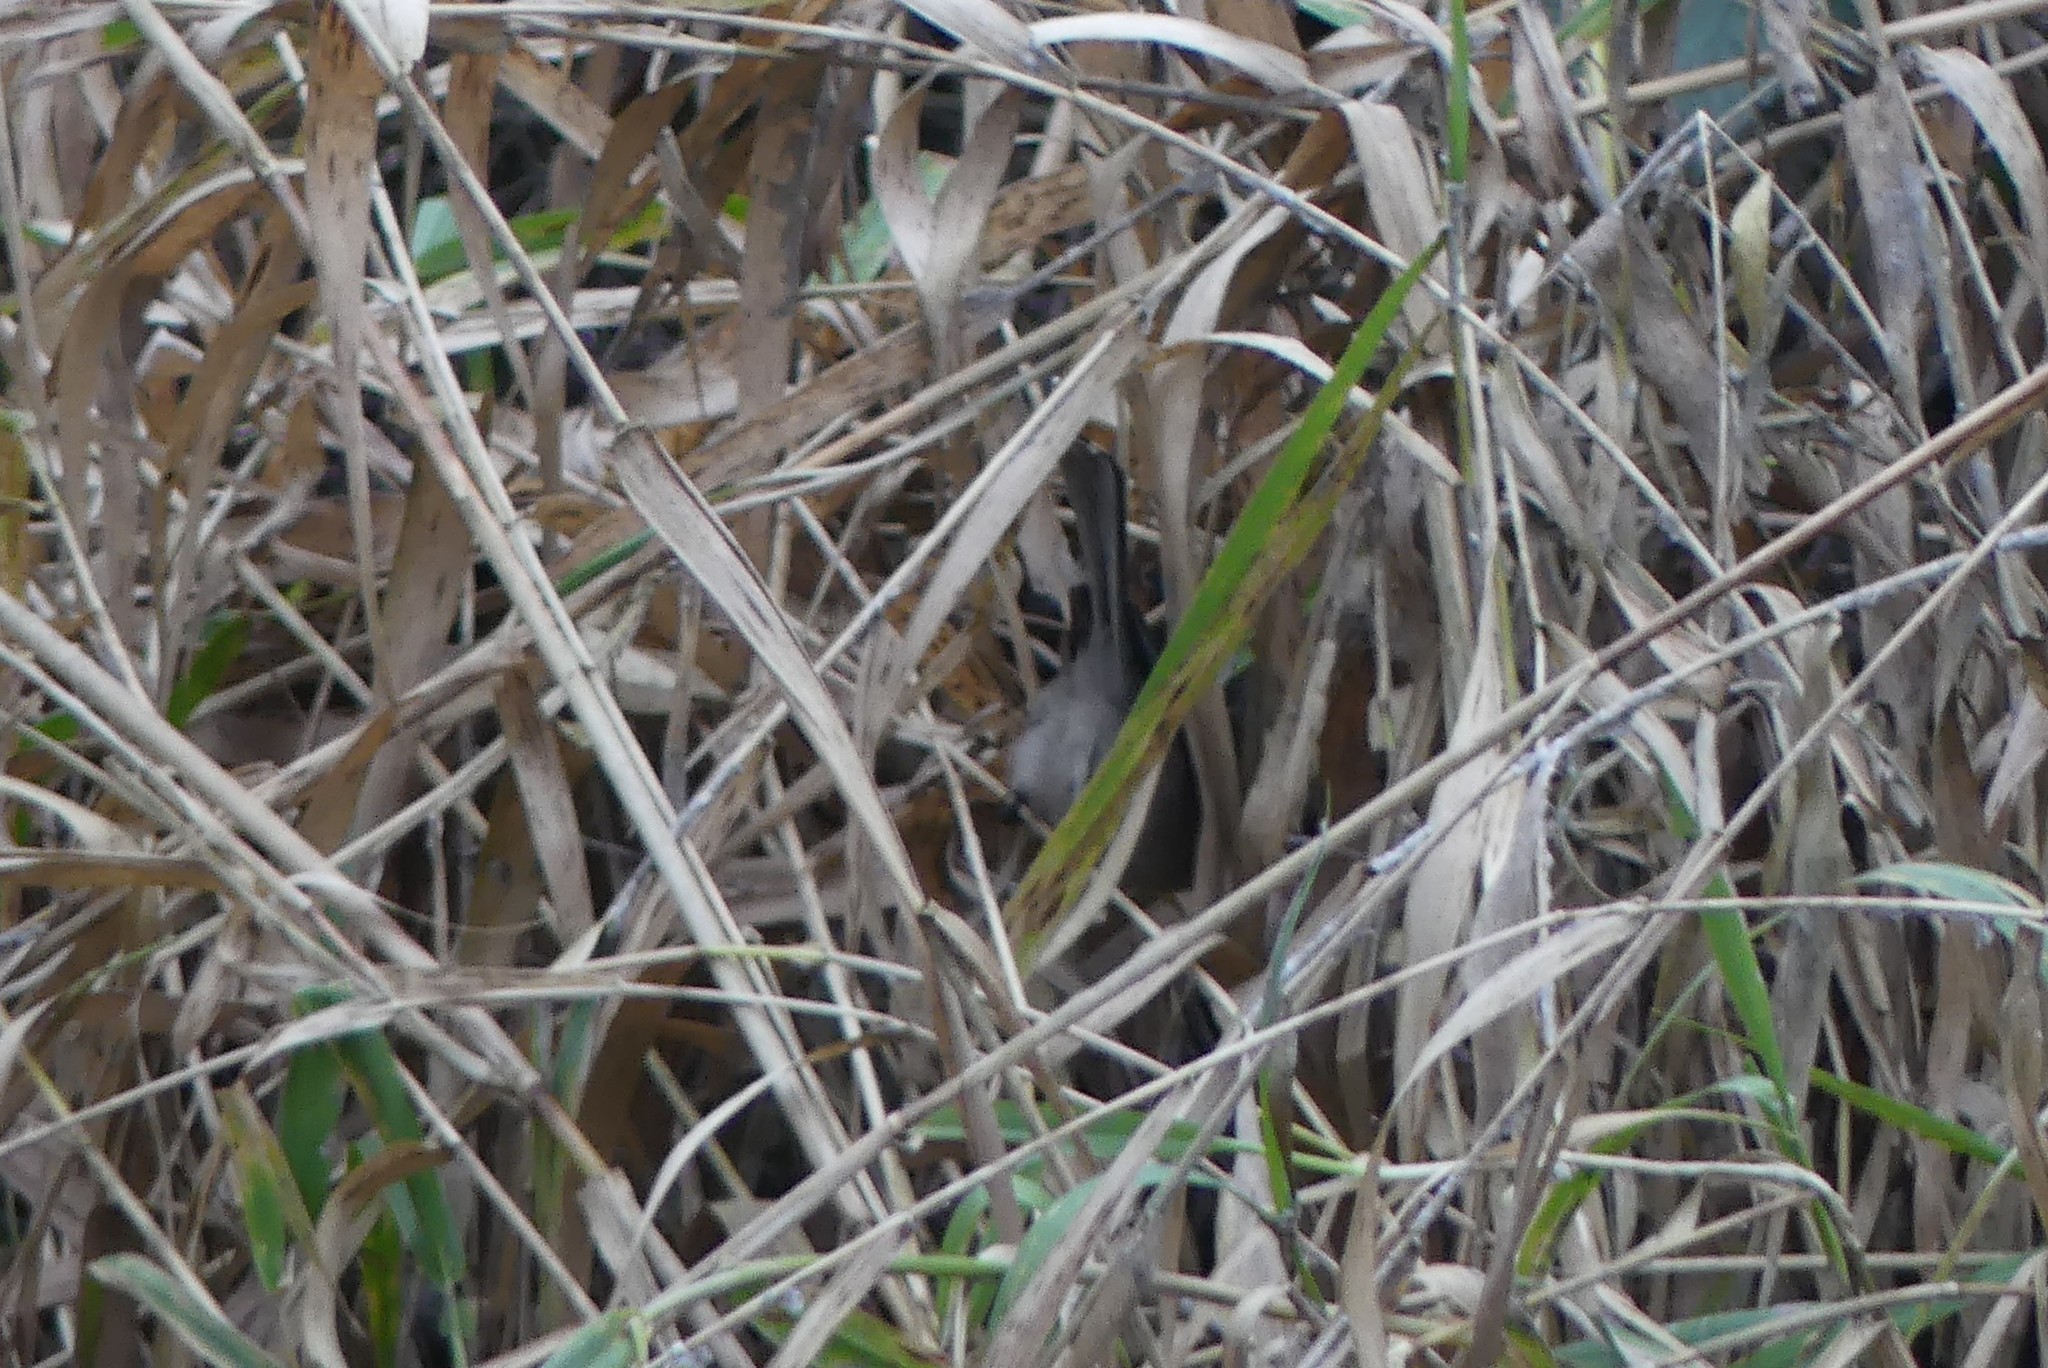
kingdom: Animalia
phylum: Chordata
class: Aves
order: Passeriformes
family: Aegithalidae
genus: Psaltriparus
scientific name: Psaltriparus minimus
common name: American bushtit
